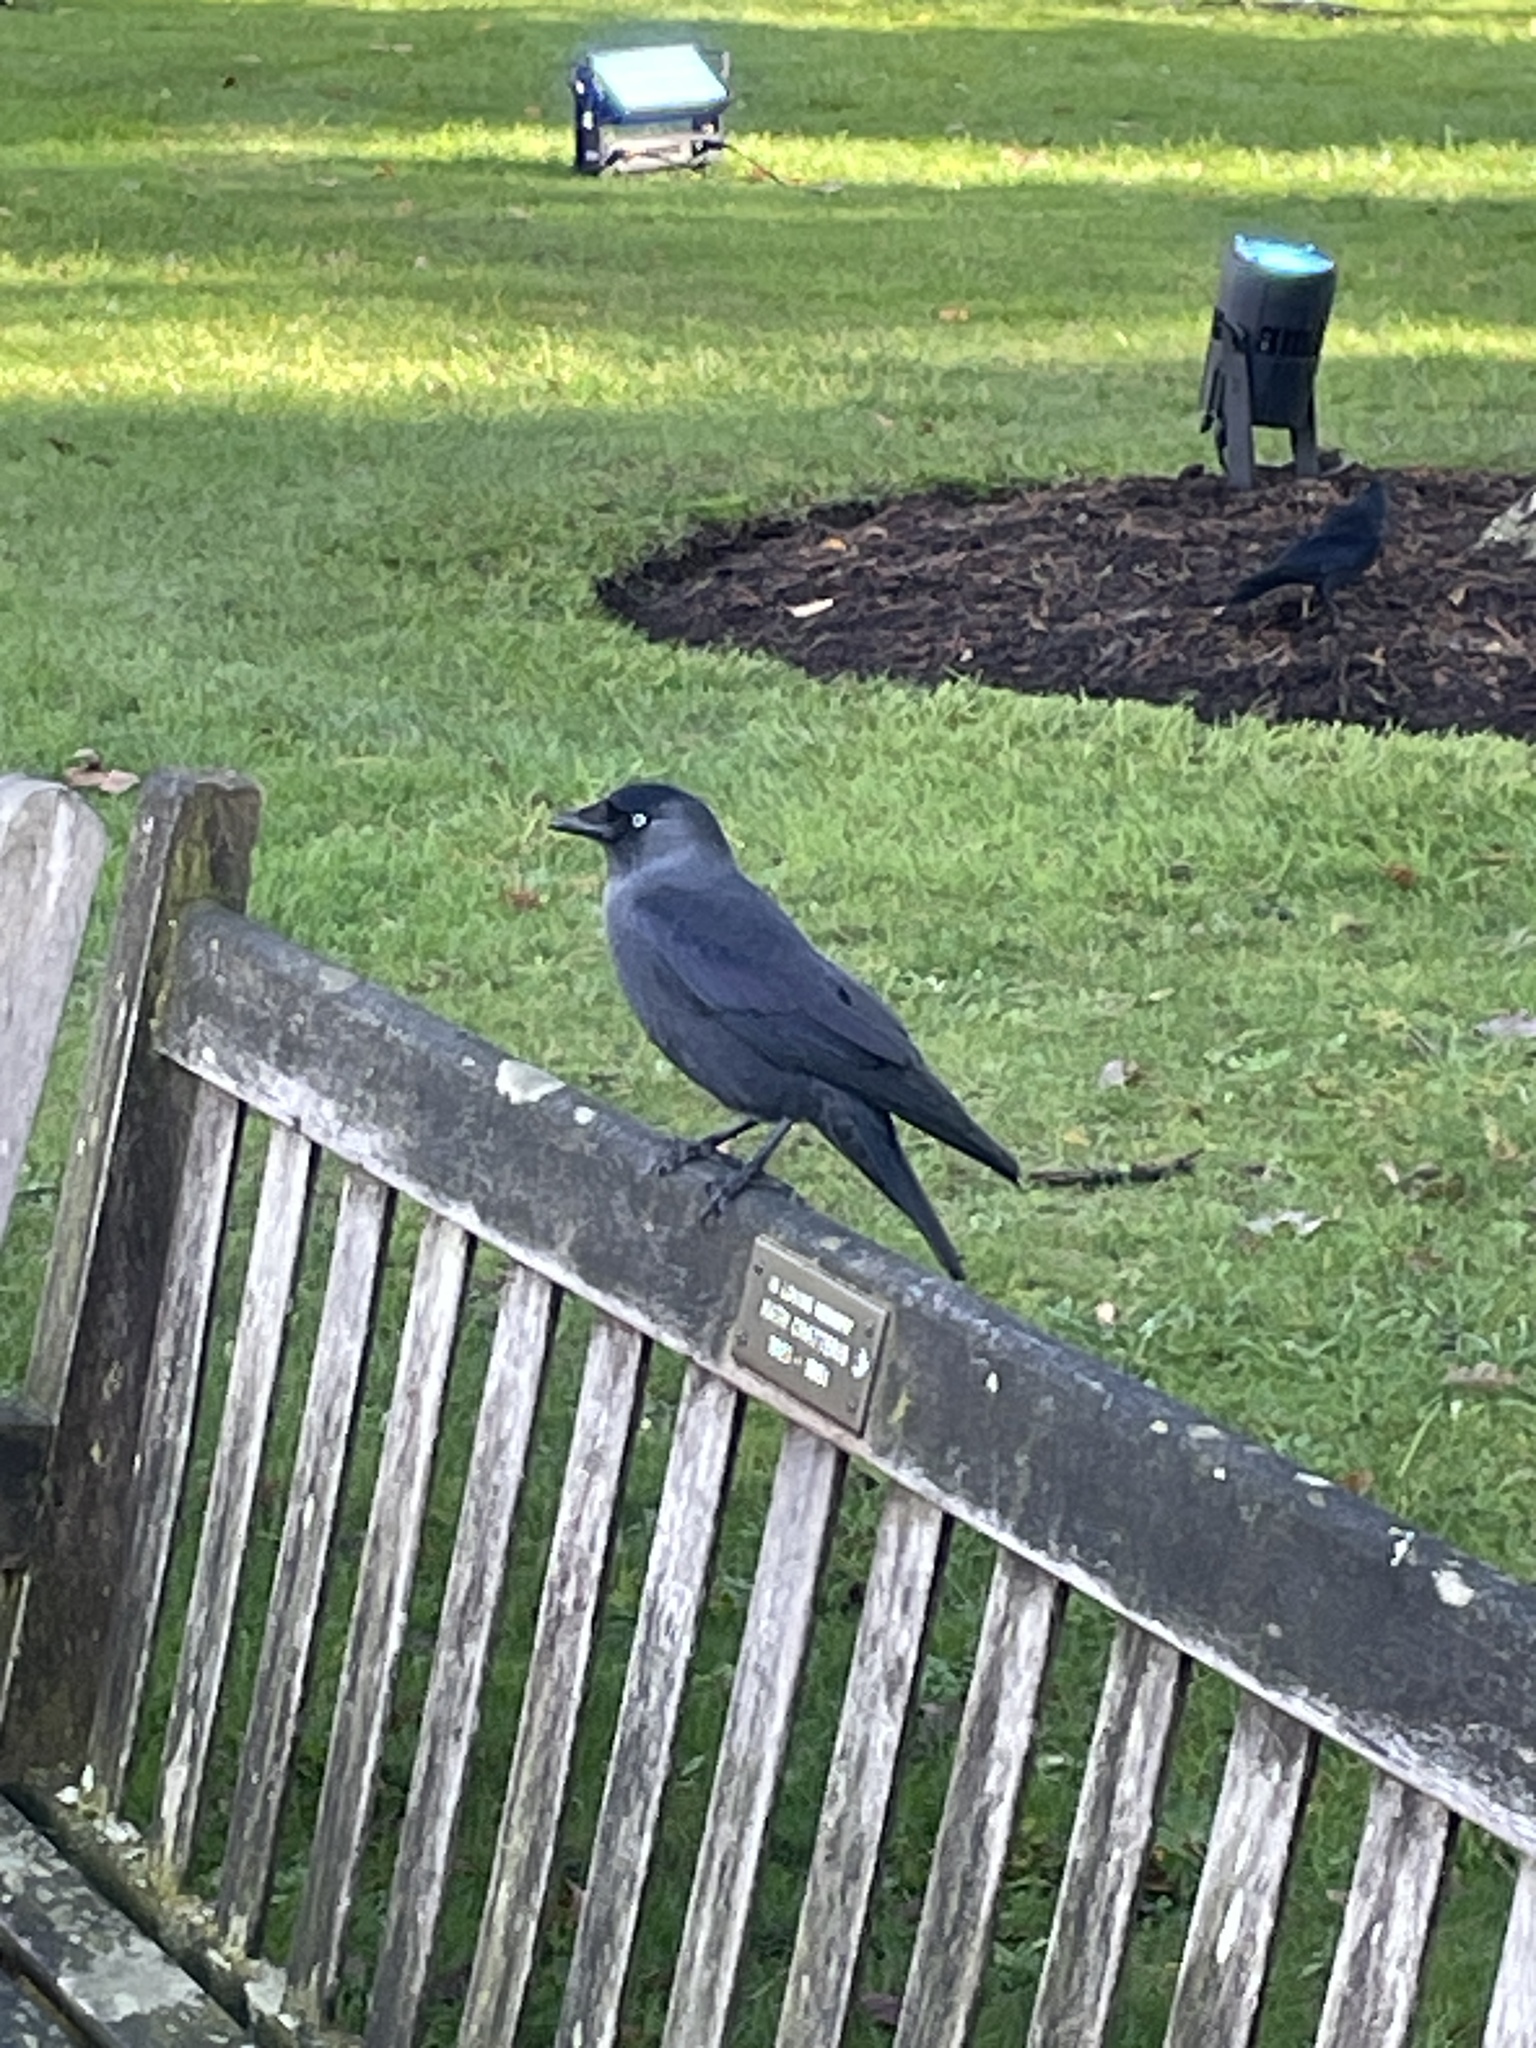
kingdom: Animalia
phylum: Chordata
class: Aves
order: Passeriformes
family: Corvidae
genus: Coloeus
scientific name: Coloeus monedula
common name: Western jackdaw
